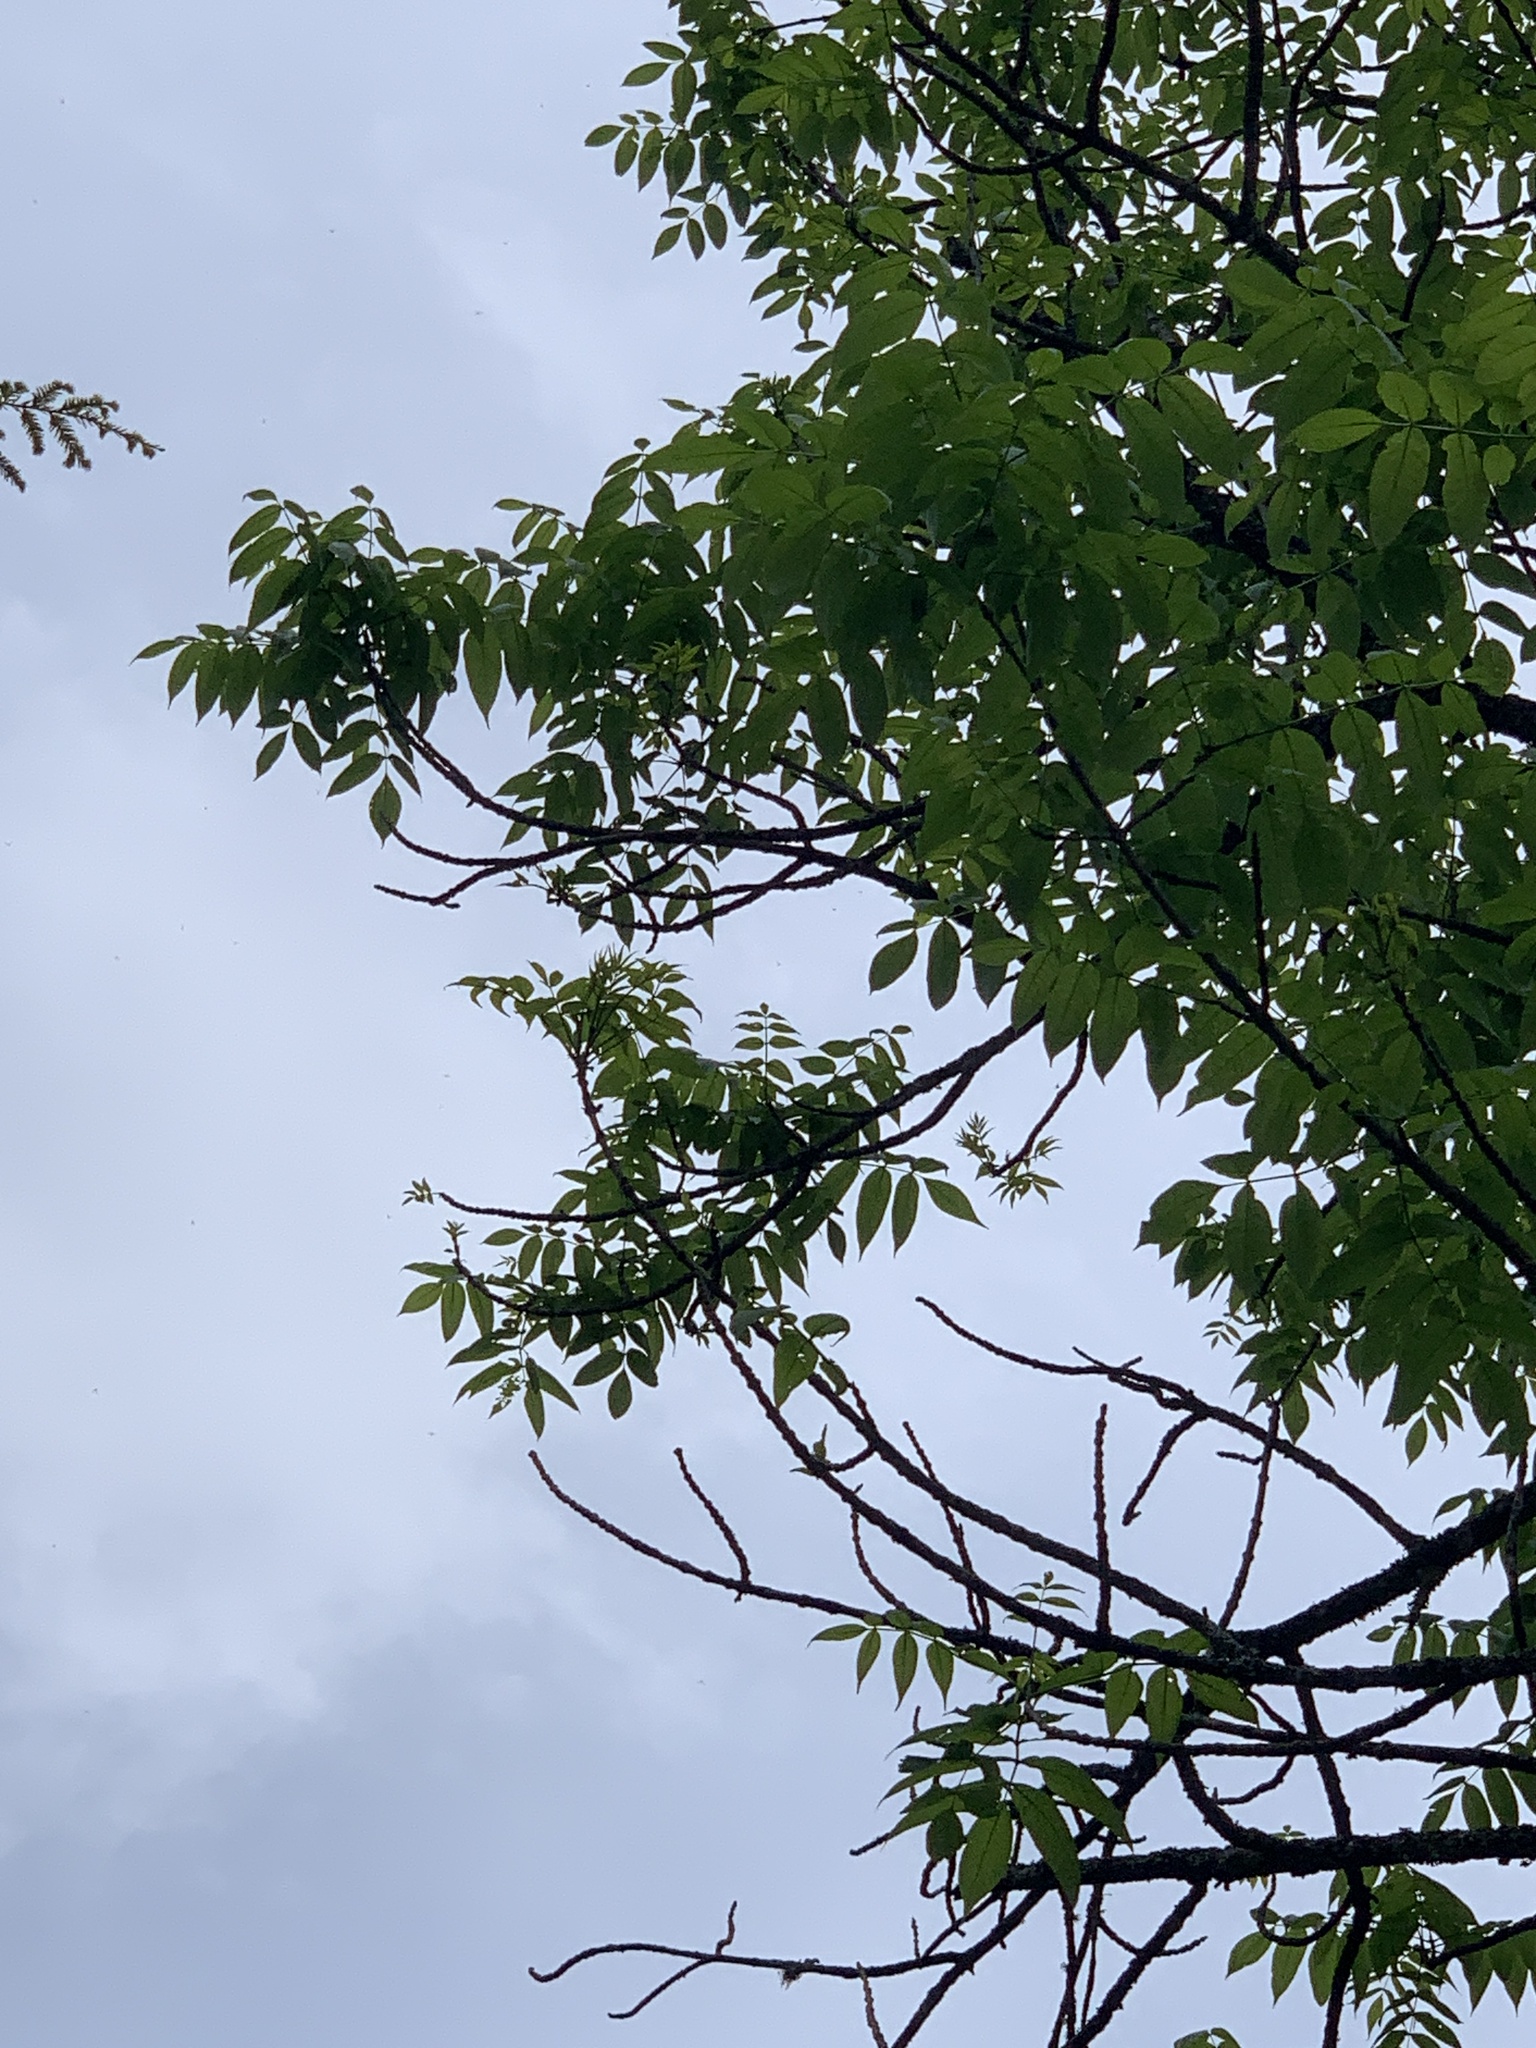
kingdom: Plantae
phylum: Tracheophyta
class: Magnoliopsida
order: Lamiales
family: Oleaceae
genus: Fraxinus
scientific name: Fraxinus nigra
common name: Black ash
